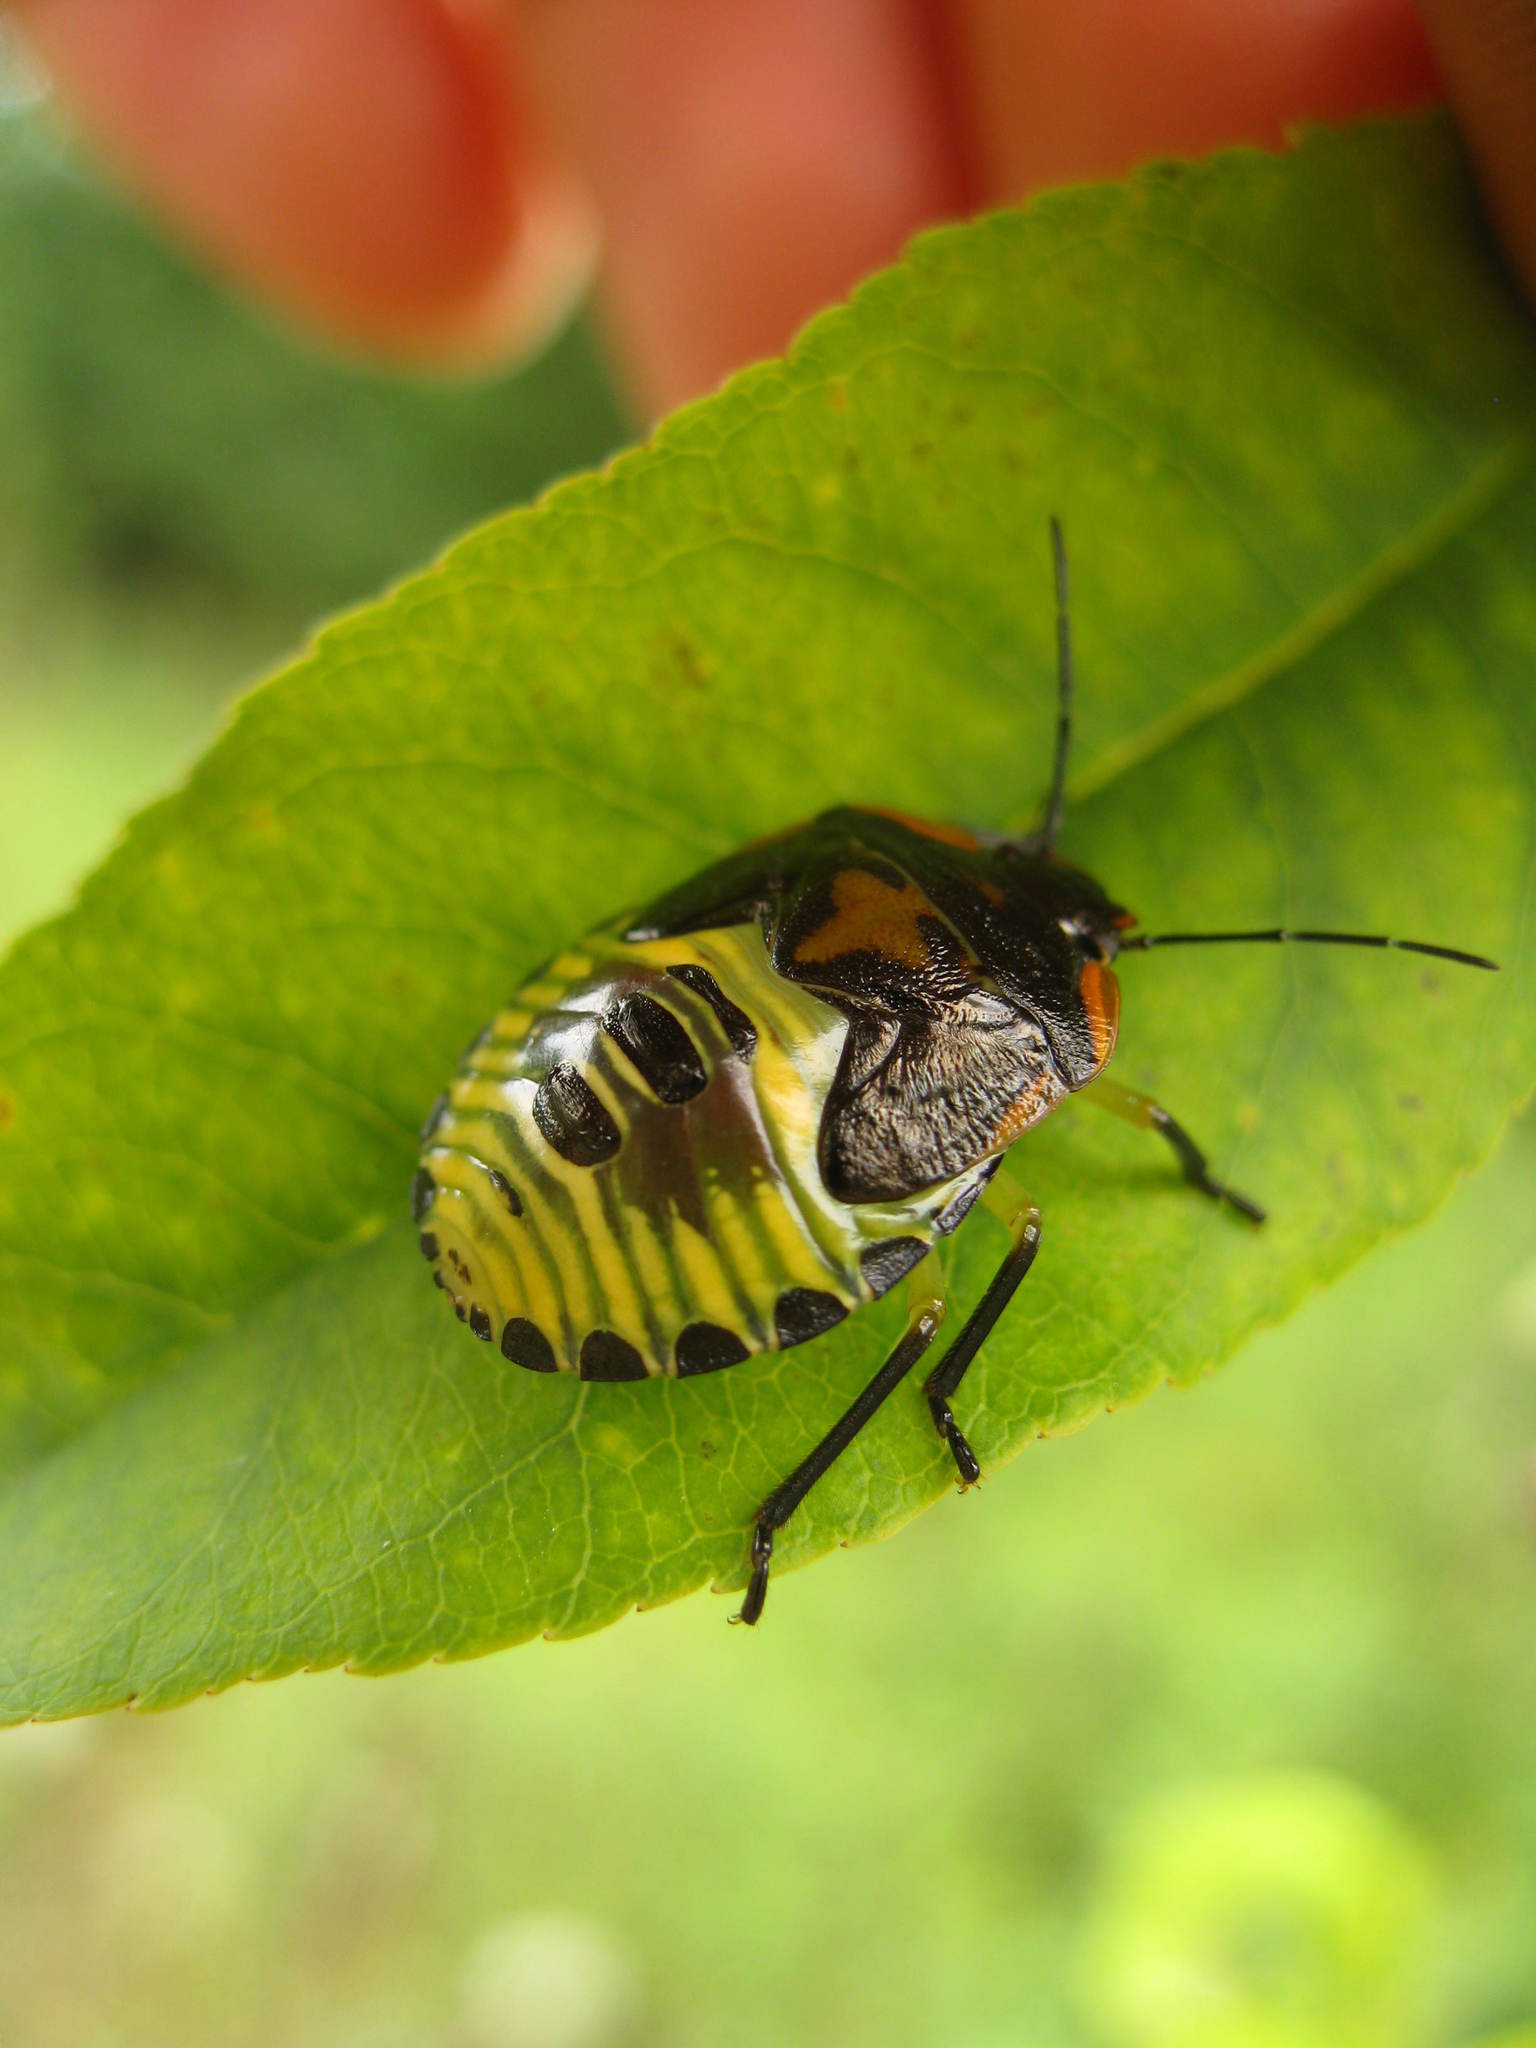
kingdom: Animalia
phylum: Arthropoda
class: Insecta
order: Hemiptera
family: Pentatomidae
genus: Chinavia
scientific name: Chinavia hilaris
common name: Green stink bug
